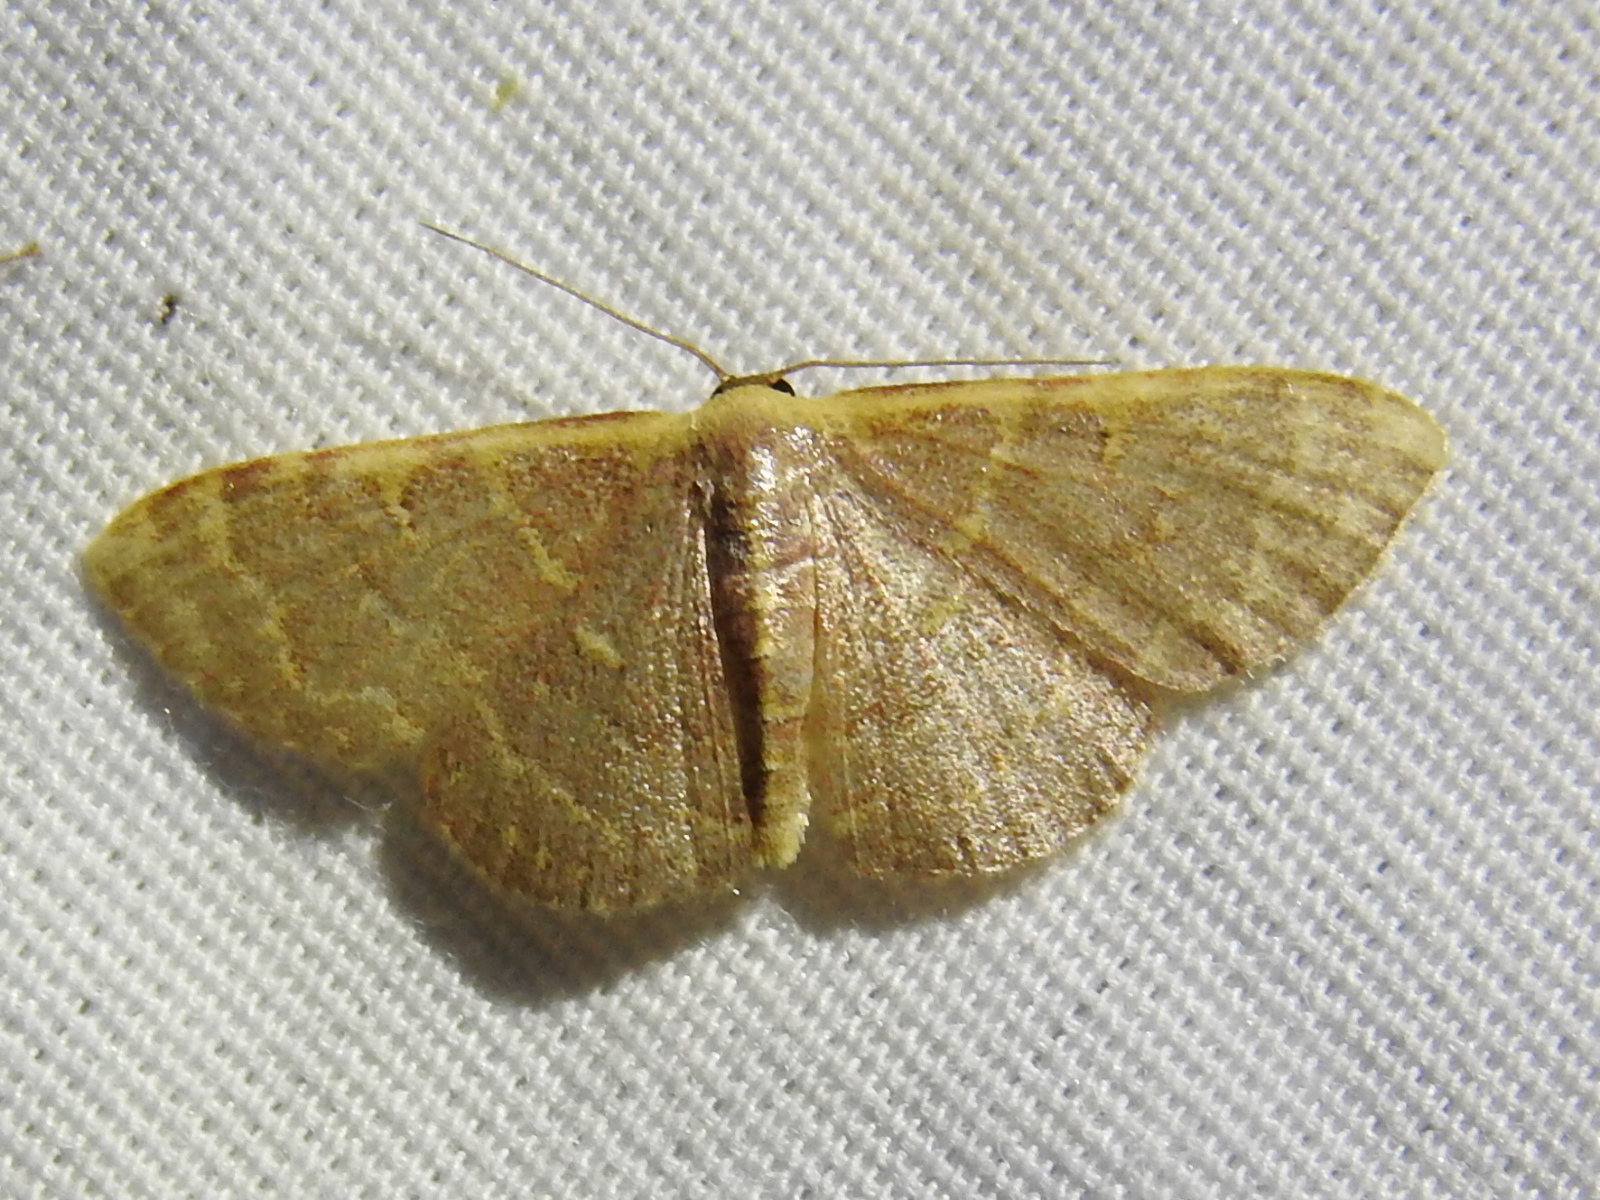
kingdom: Animalia
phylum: Arthropoda
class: Insecta
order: Lepidoptera
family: Geometridae
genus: Leptostales
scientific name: Leptostales pannaria
